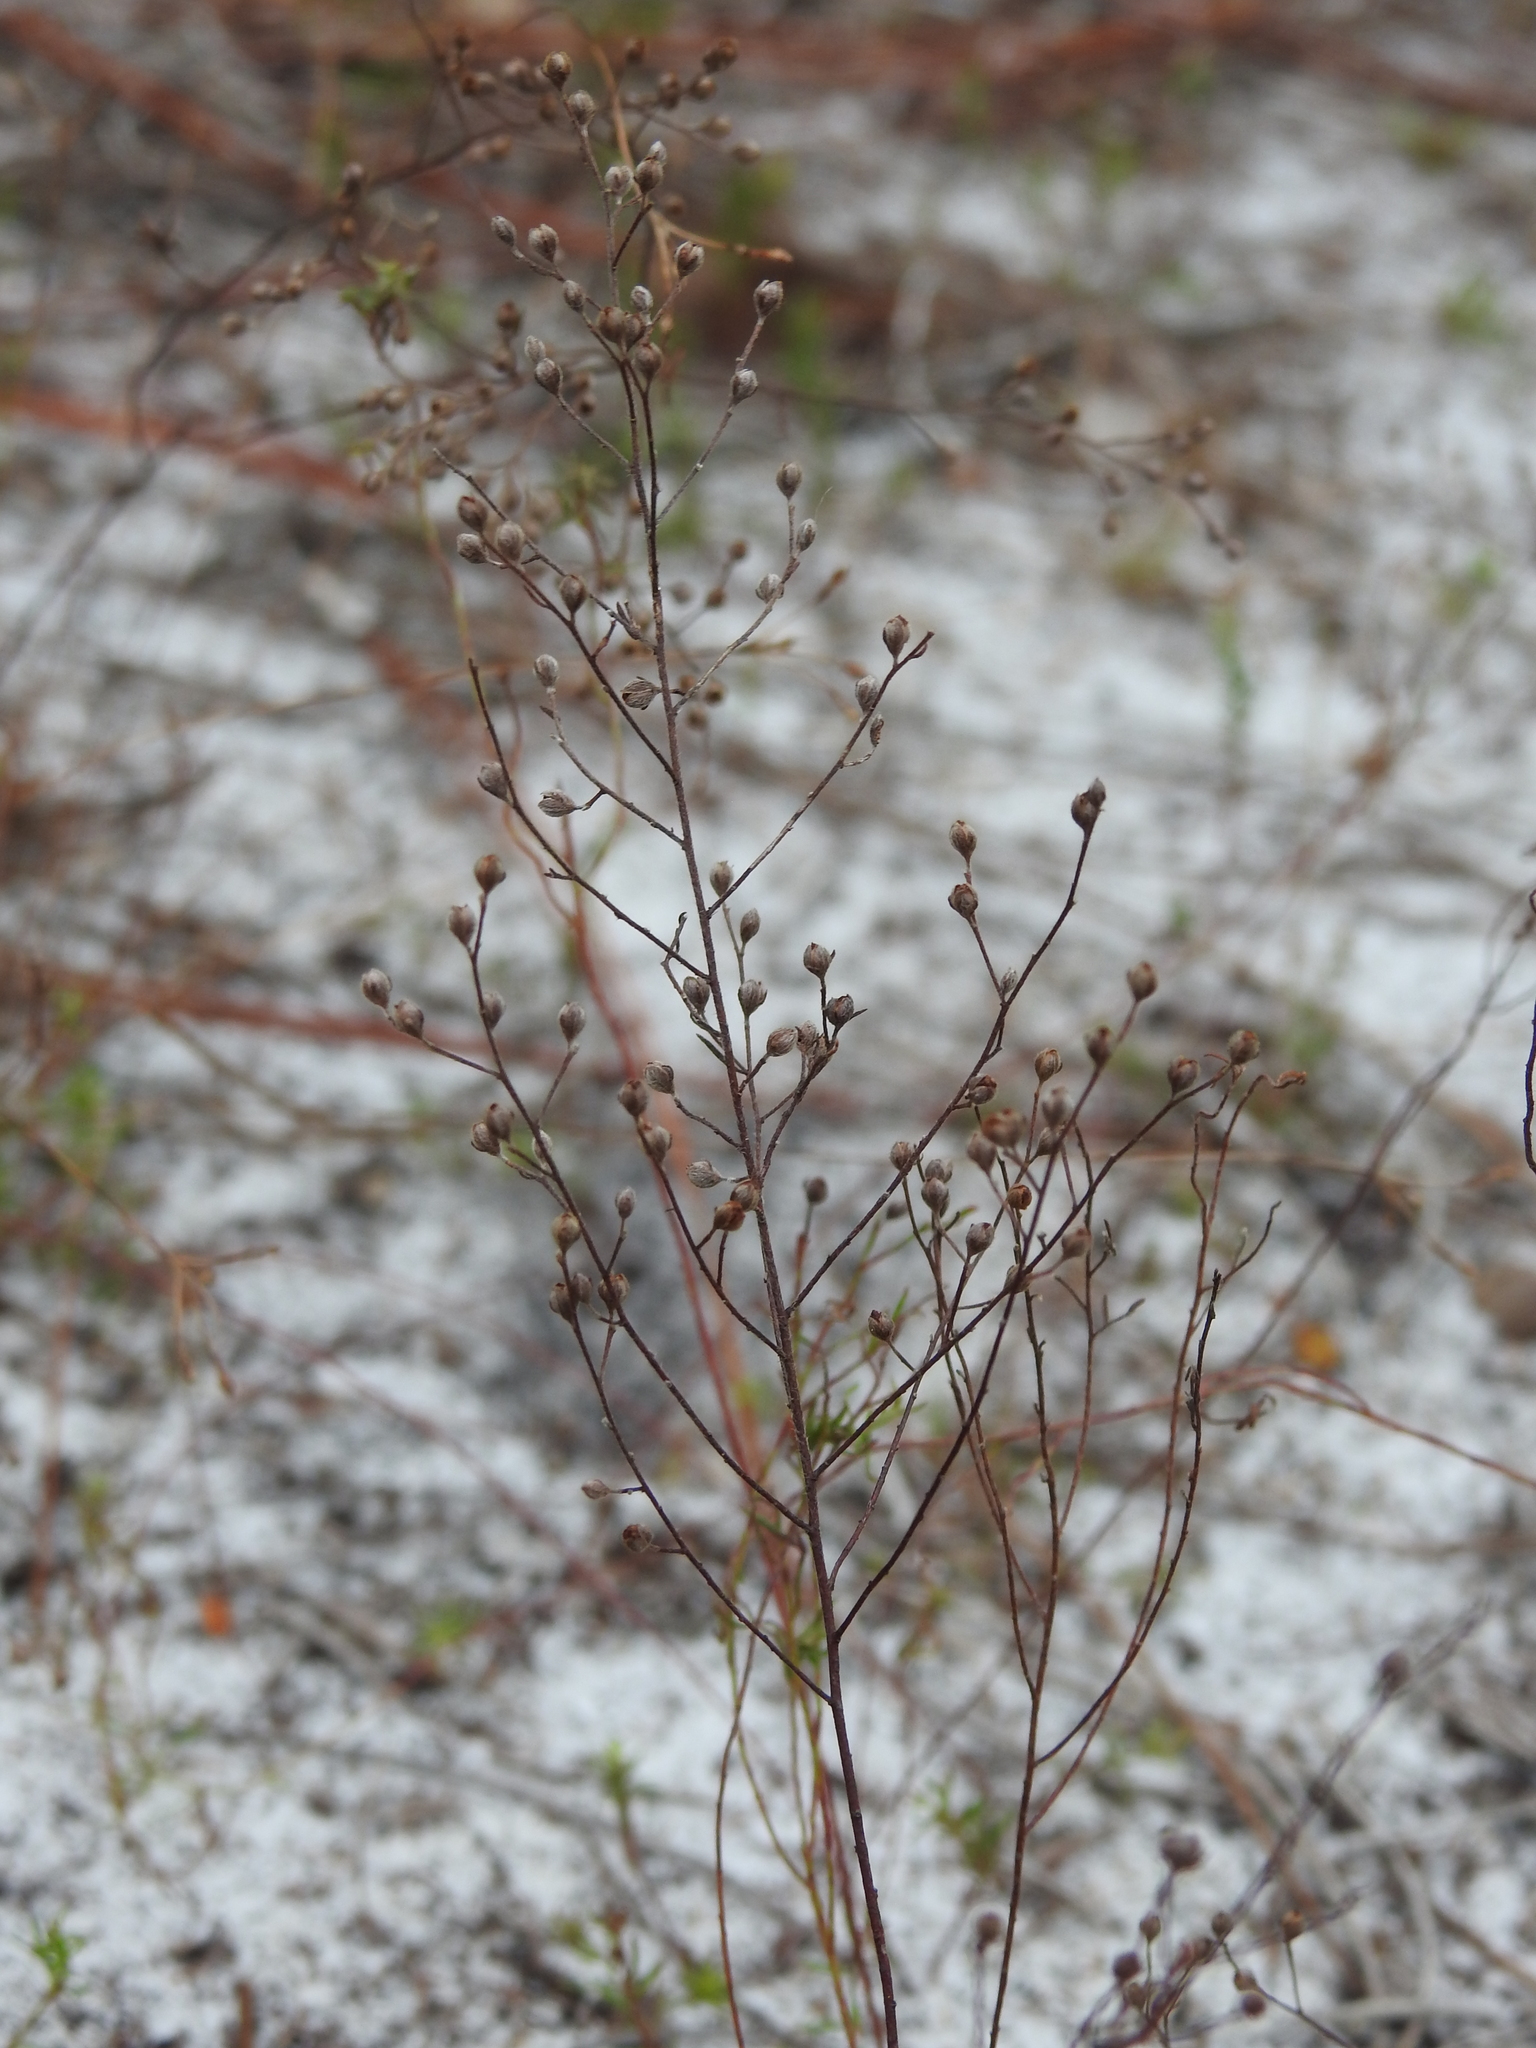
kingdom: Plantae
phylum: Tracheophyta
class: Magnoliopsida
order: Malvales
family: Cistaceae
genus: Lechea
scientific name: Lechea torreyi
